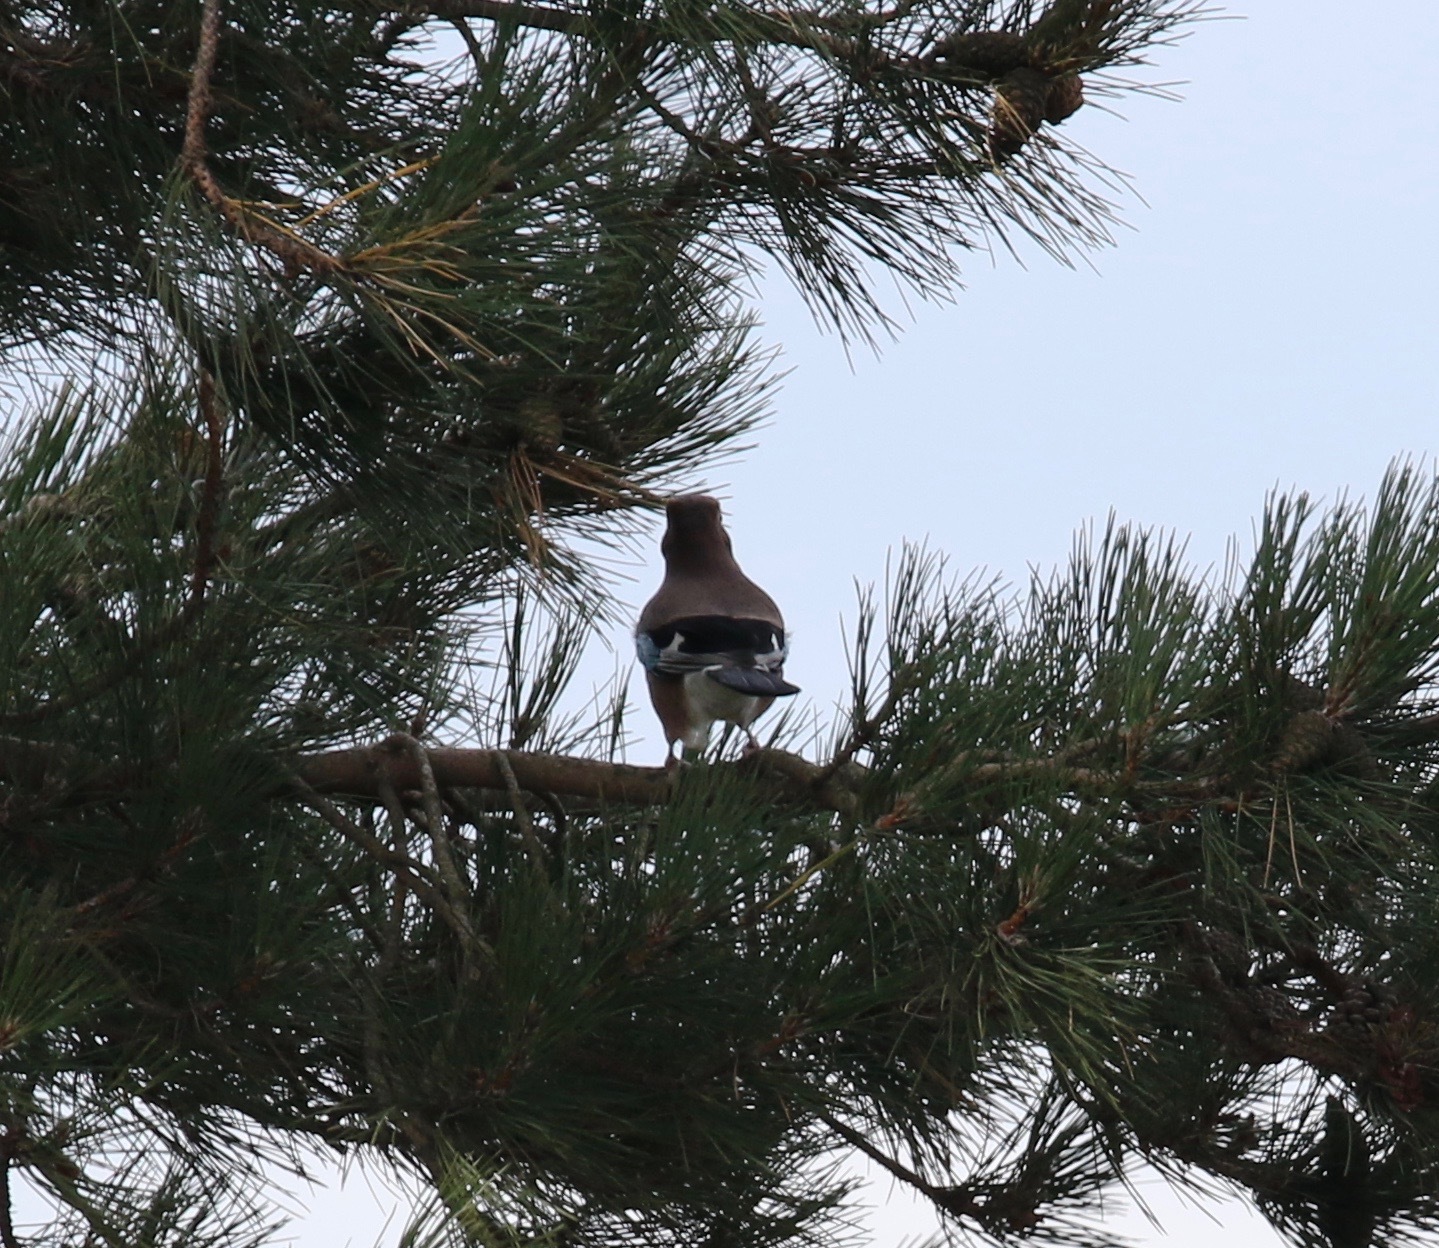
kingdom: Animalia
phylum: Chordata
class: Aves
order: Passeriformes
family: Corvidae
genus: Garrulus
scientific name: Garrulus glandarius
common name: Eurasian jay
